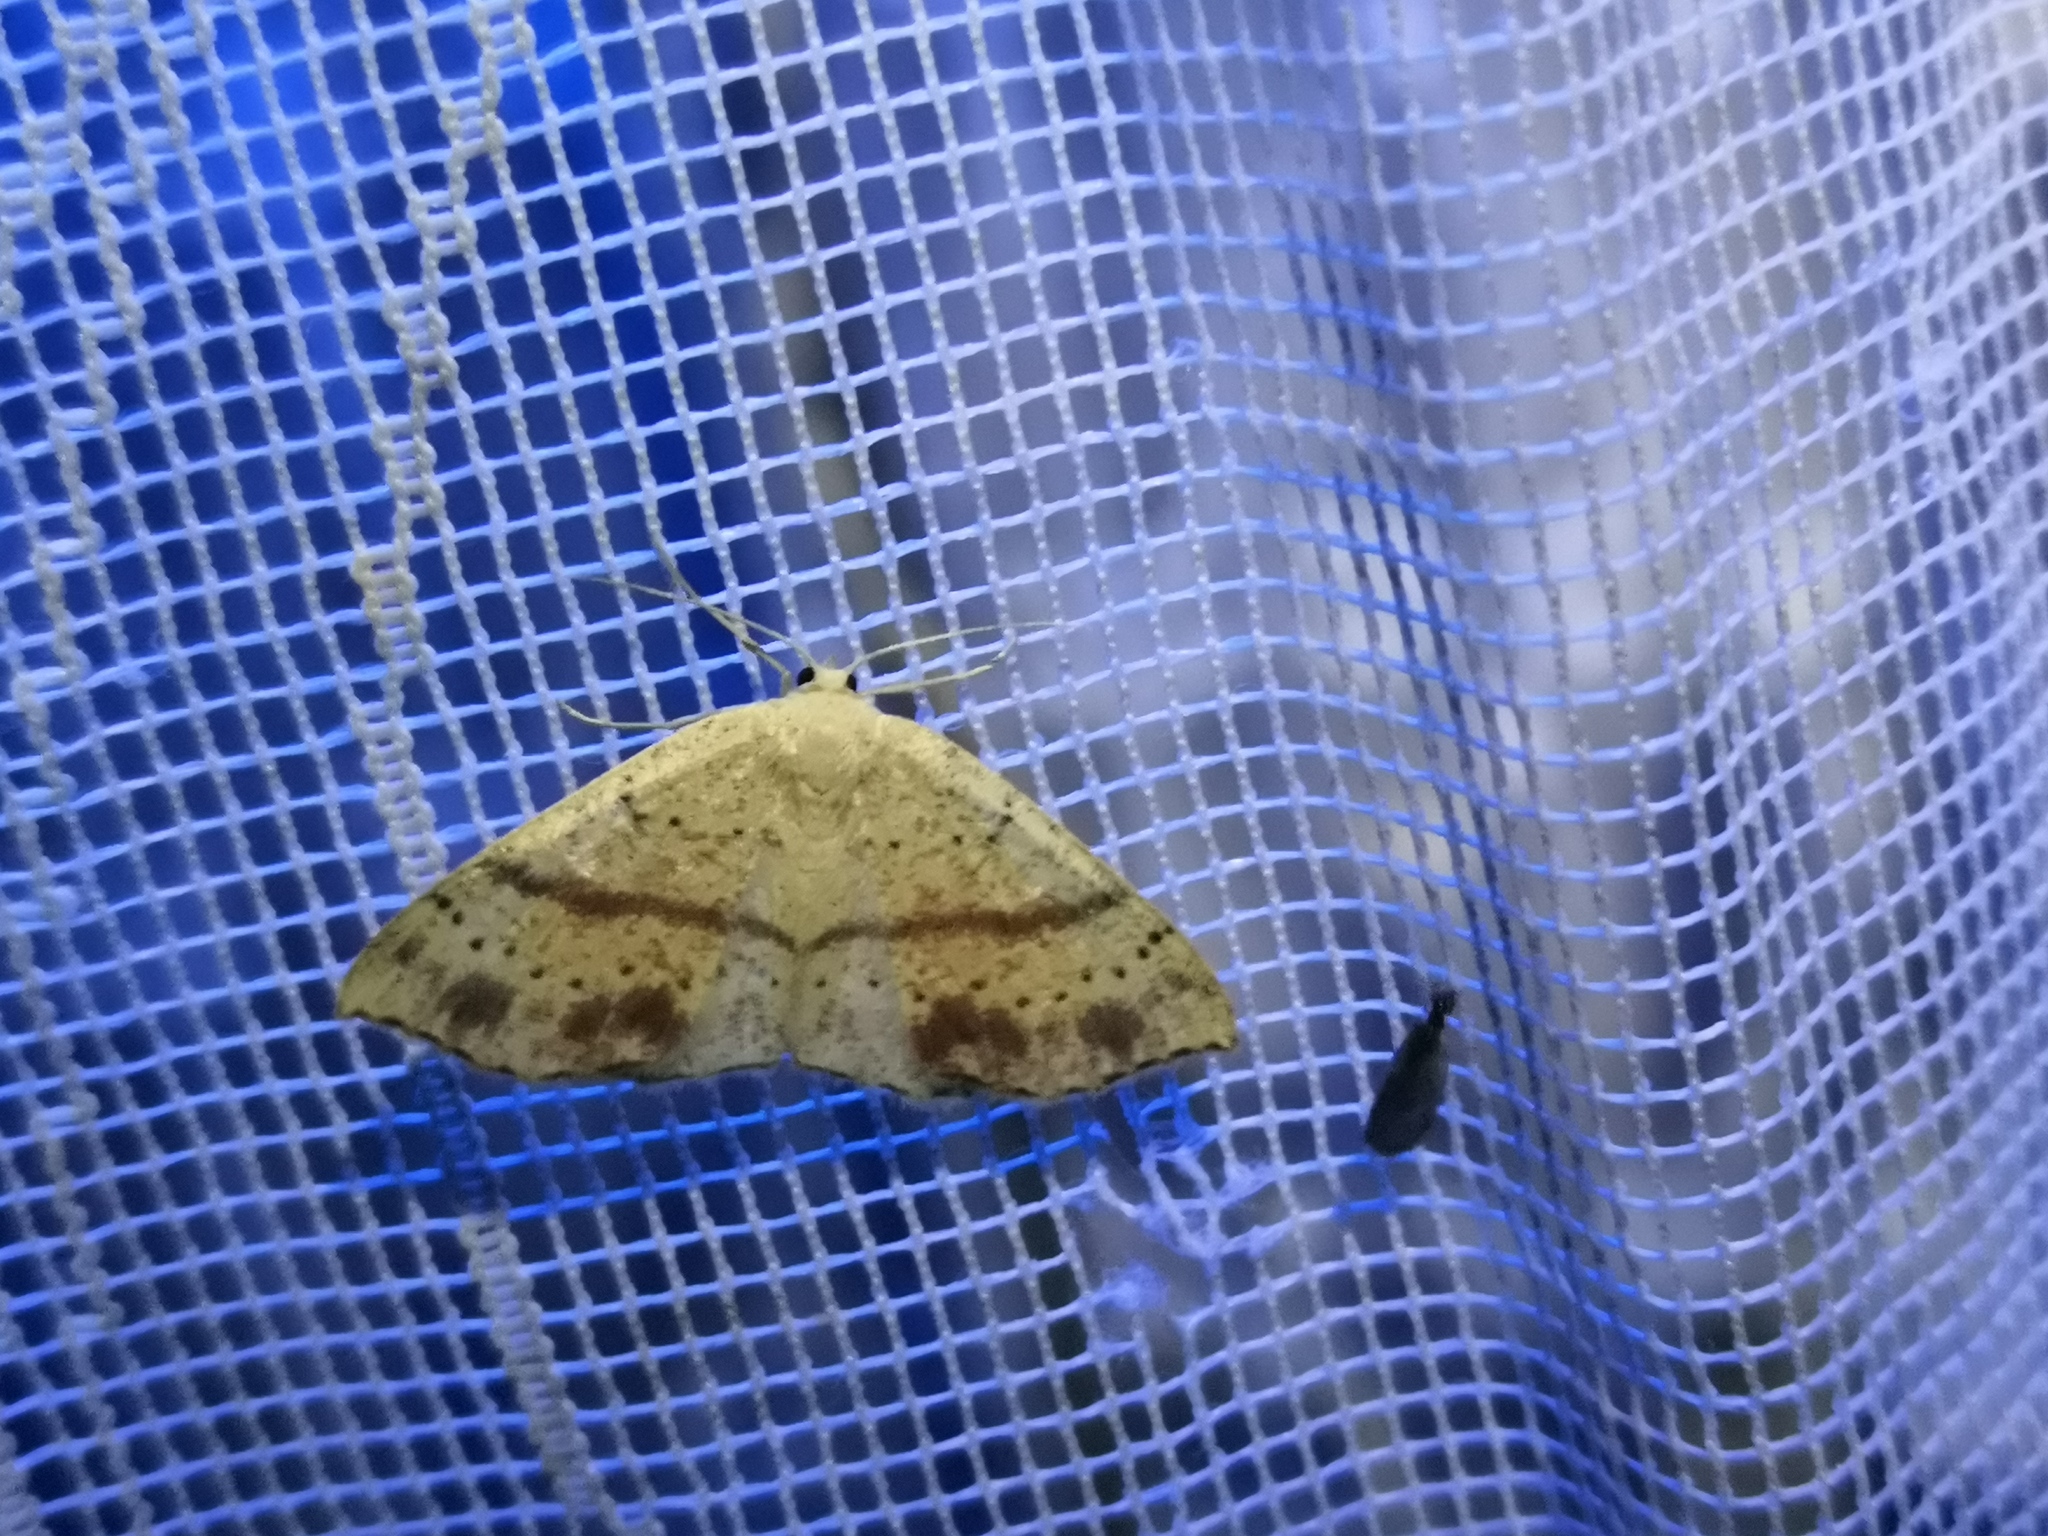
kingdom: Animalia
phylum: Arthropoda
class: Insecta
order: Lepidoptera
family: Geometridae
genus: Cyclophora
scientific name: Cyclophora punctaria
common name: Maiden's blush
